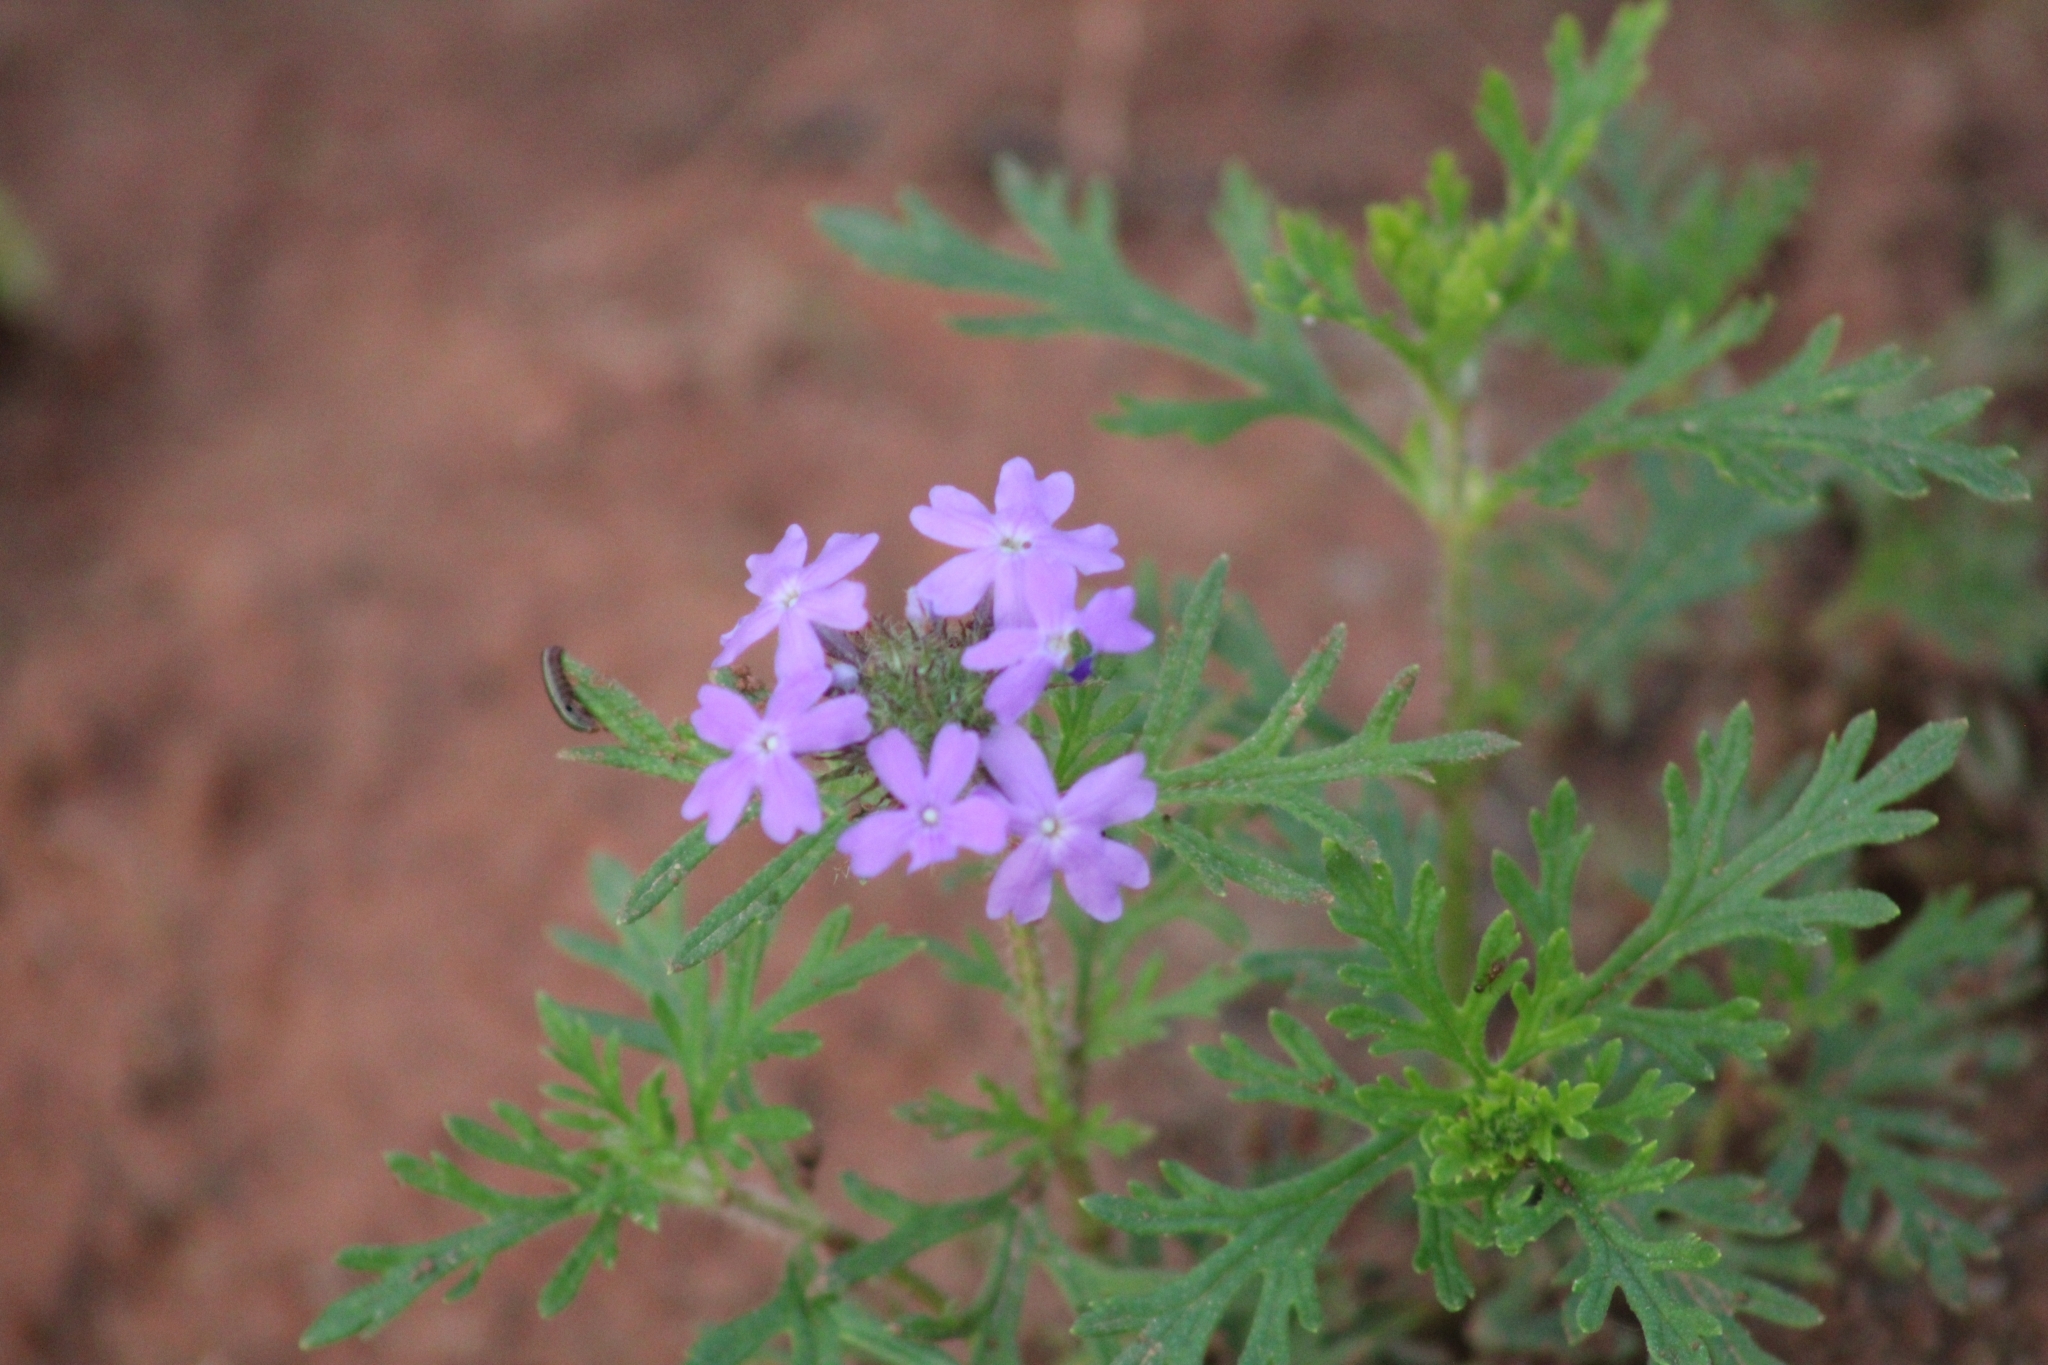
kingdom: Plantae
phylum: Tracheophyta
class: Magnoliopsida
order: Lamiales
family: Verbenaceae
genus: Verbena
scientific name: Verbena bipinnatifida
